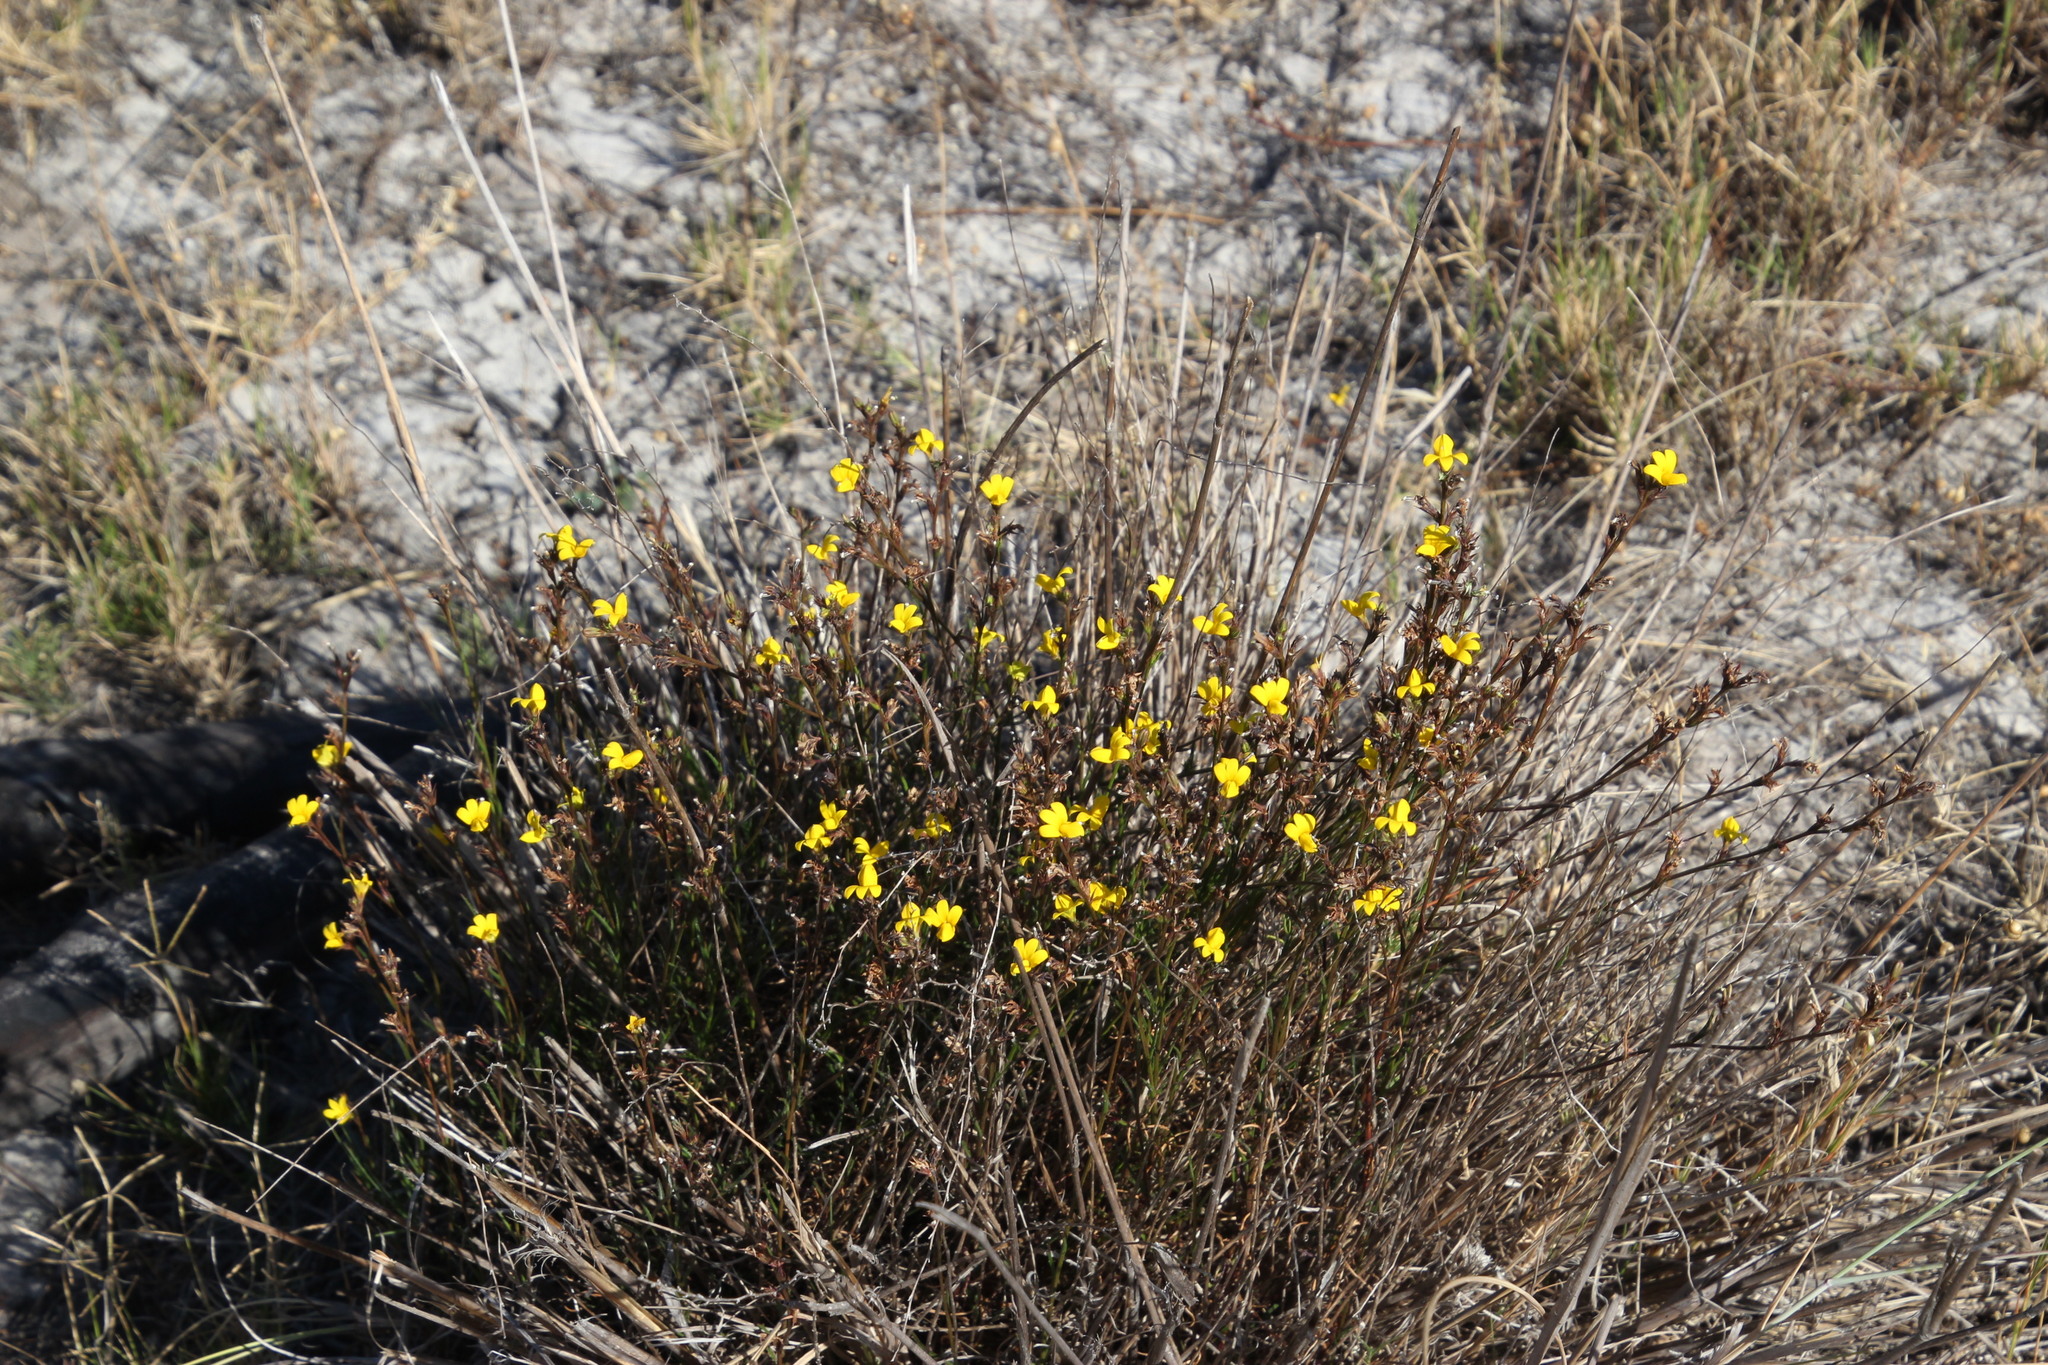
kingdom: Plantae
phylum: Tracheophyta
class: Magnoliopsida
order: Asterales
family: Campanulaceae
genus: Monopsis
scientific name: Monopsis lutea
